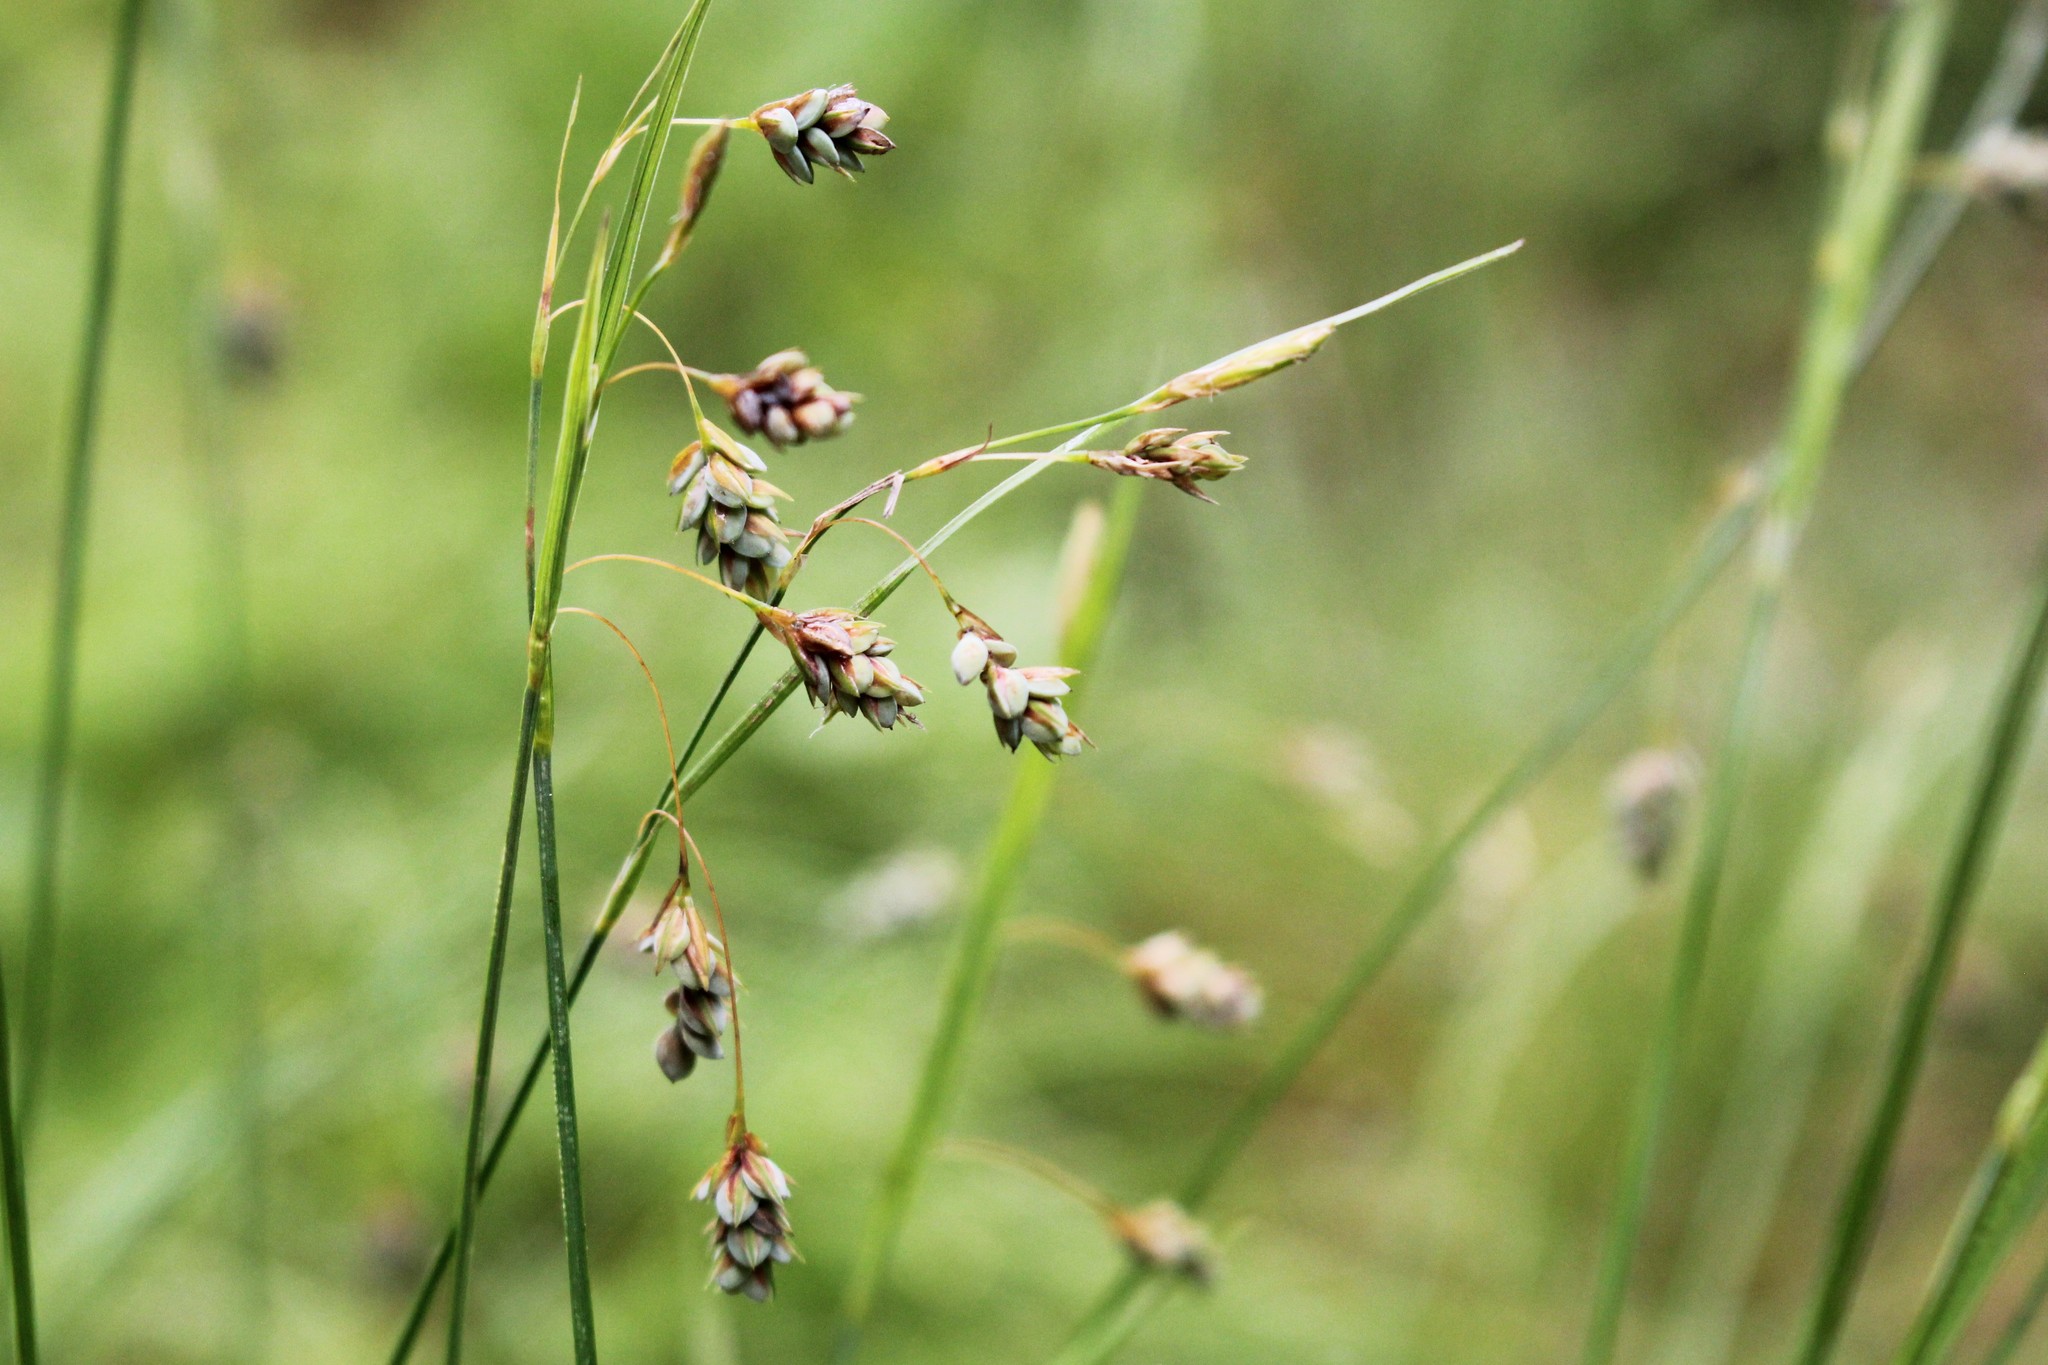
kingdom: Plantae
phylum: Tracheophyta
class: Liliopsida
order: Poales
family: Cyperaceae
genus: Carex
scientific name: Carex magellanica
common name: Bog sedge
